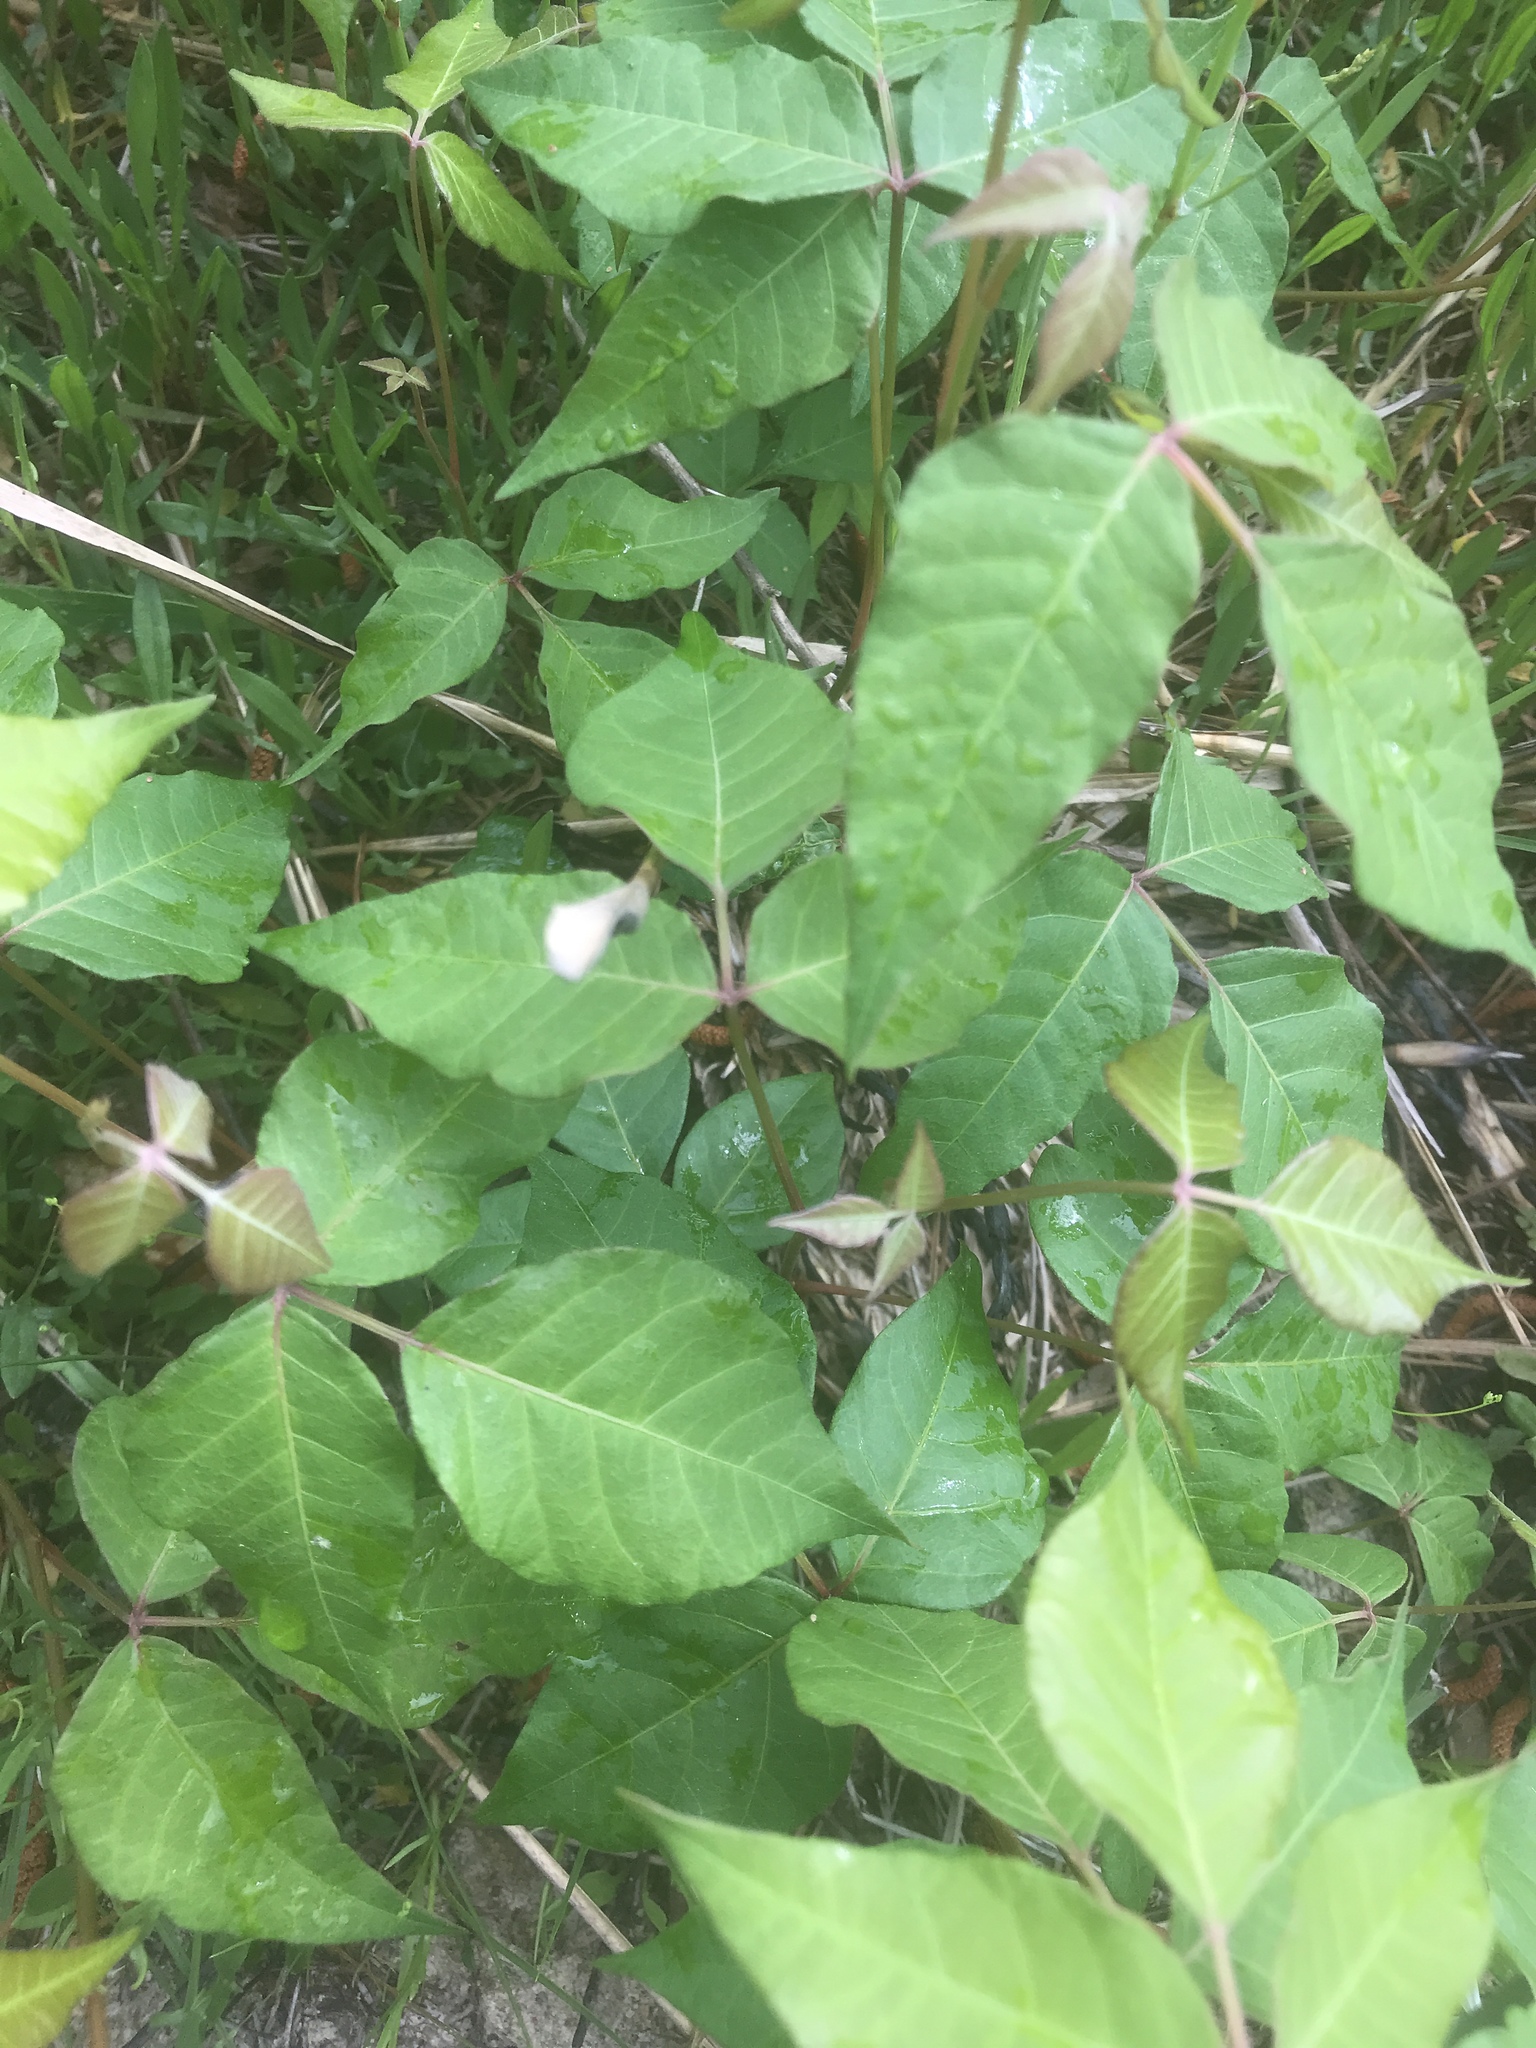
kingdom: Plantae
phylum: Tracheophyta
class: Magnoliopsida
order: Sapindales
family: Anacardiaceae
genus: Toxicodendron
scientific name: Toxicodendron radicans
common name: Poison ivy
